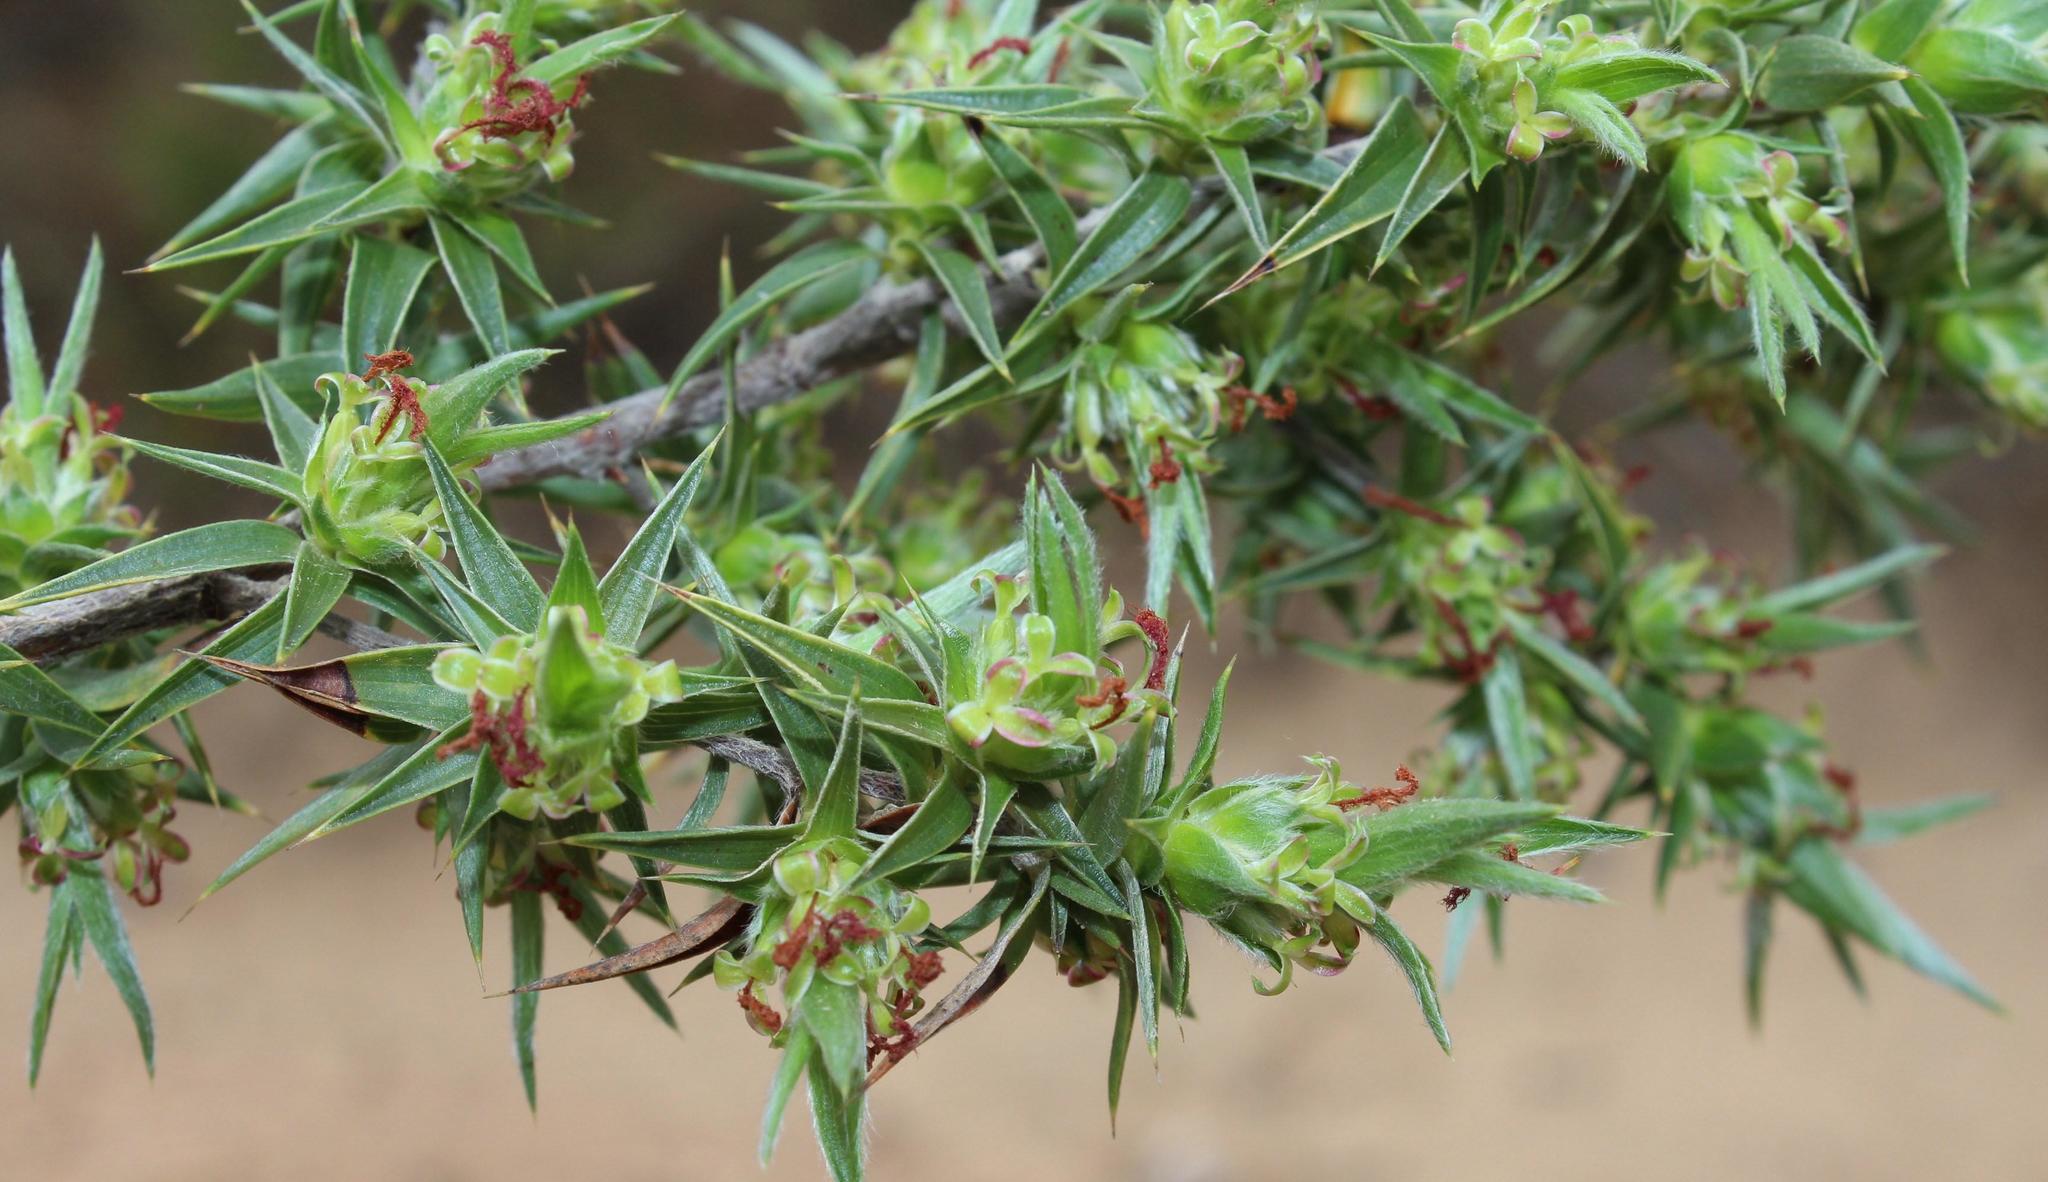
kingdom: Plantae
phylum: Tracheophyta
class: Magnoliopsida
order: Rosales
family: Rosaceae
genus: Cliffortia
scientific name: Cliffortia ruscifolia
